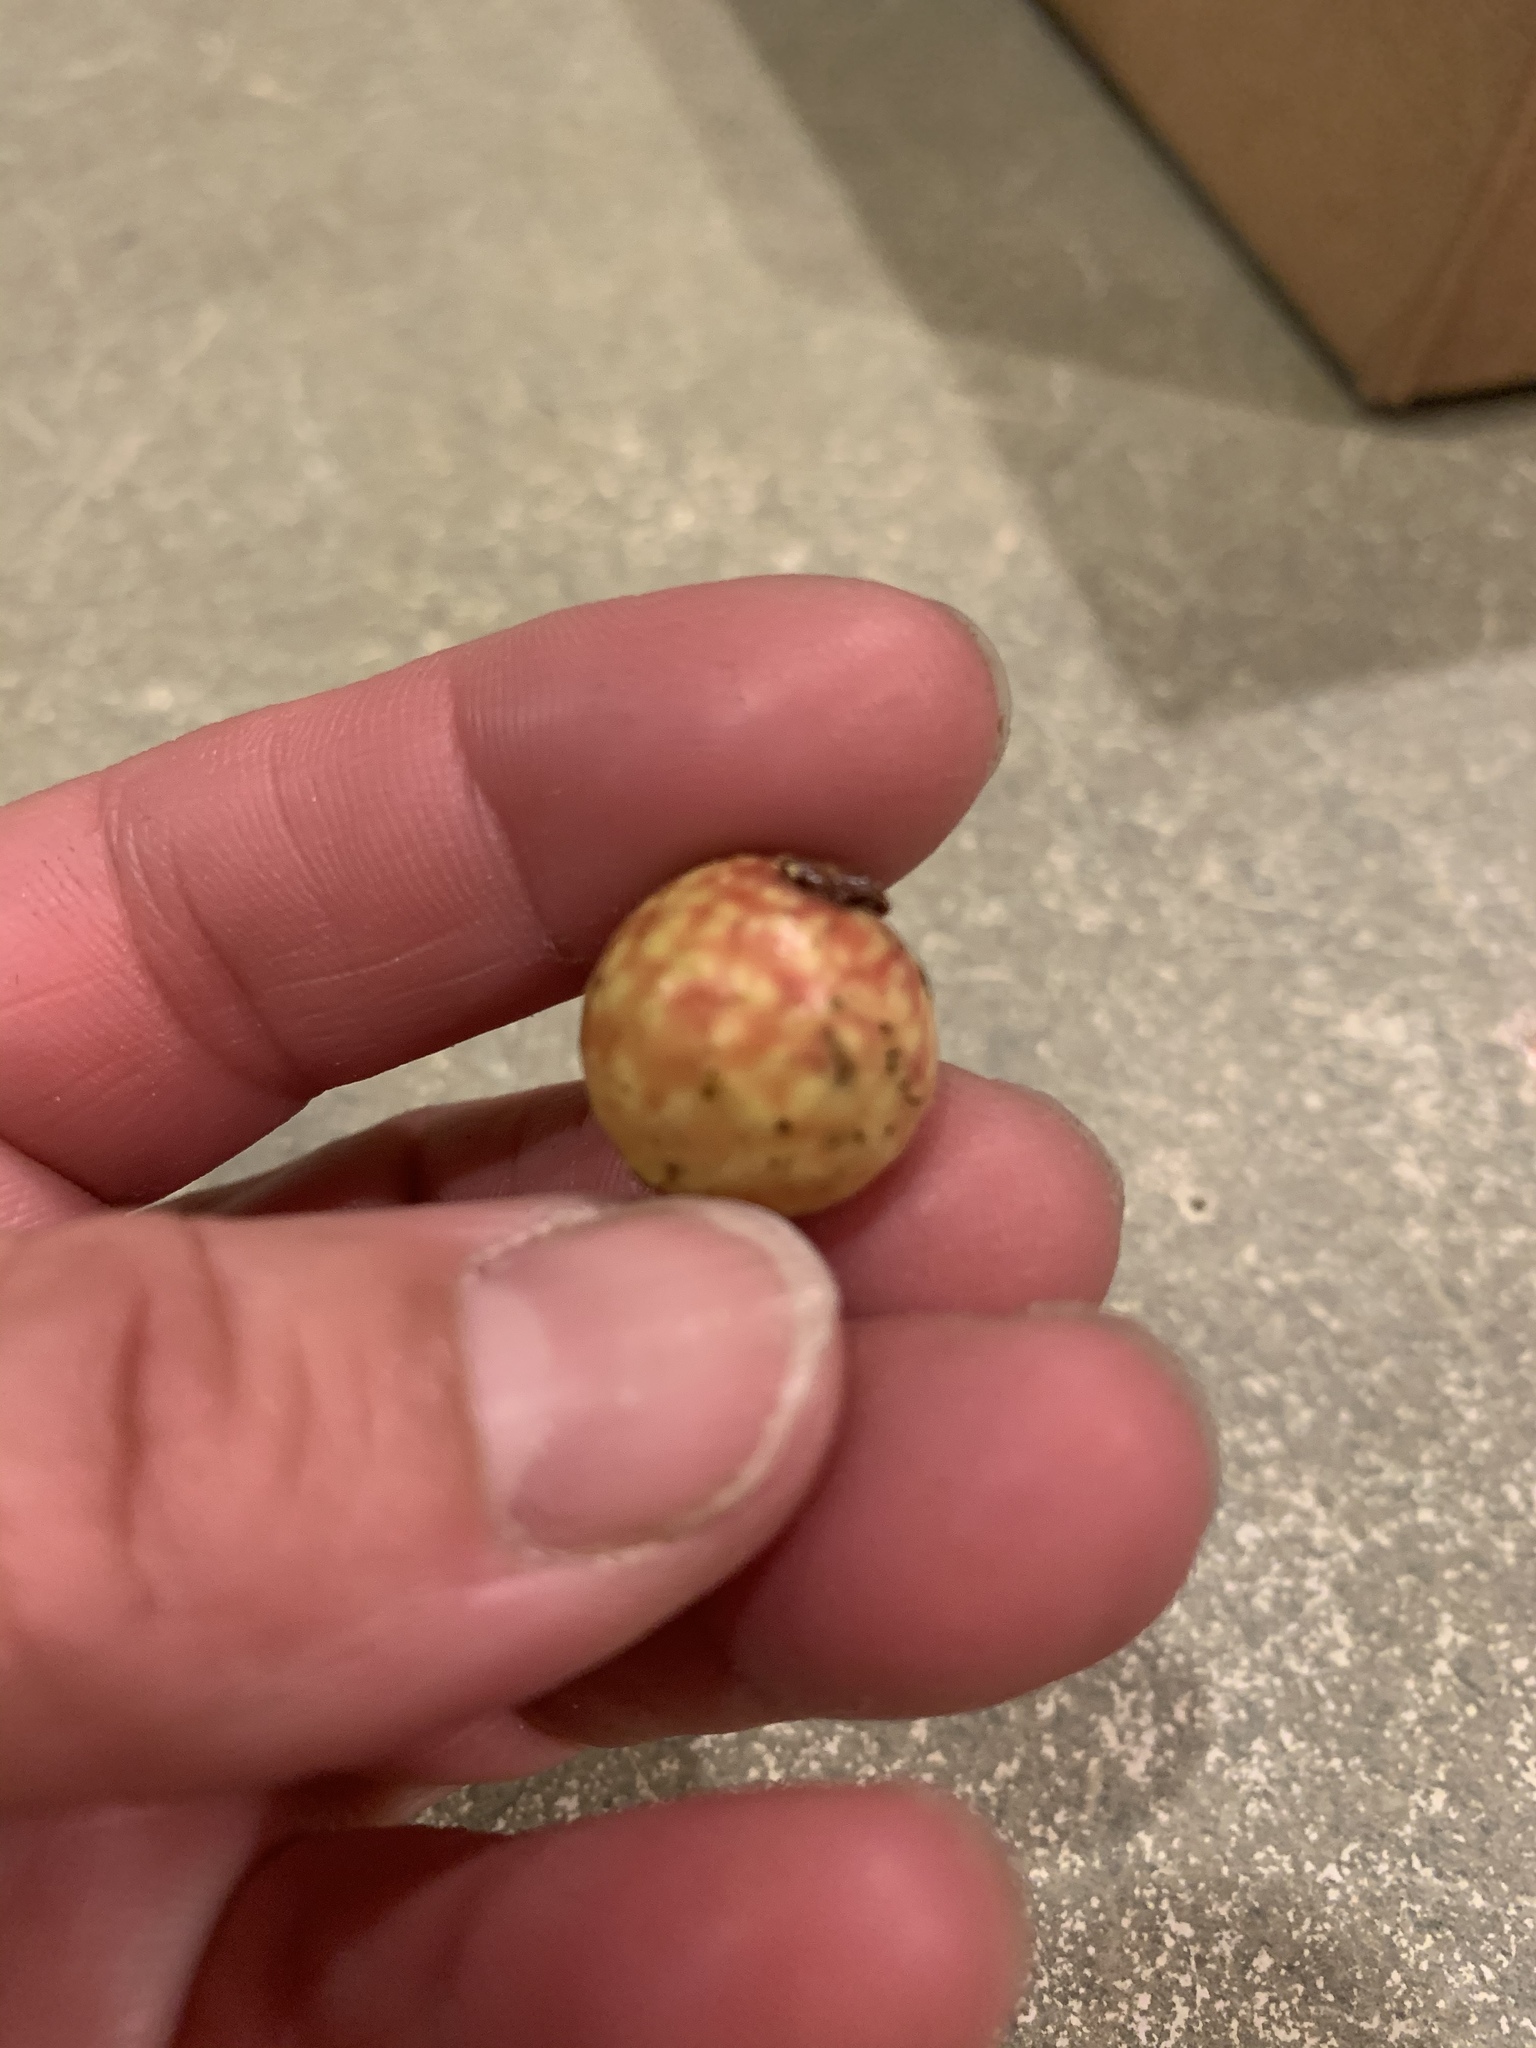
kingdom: Animalia
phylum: Arthropoda
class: Insecta
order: Hymenoptera
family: Cynipidae
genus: Amphibolips
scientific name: Amphibolips
